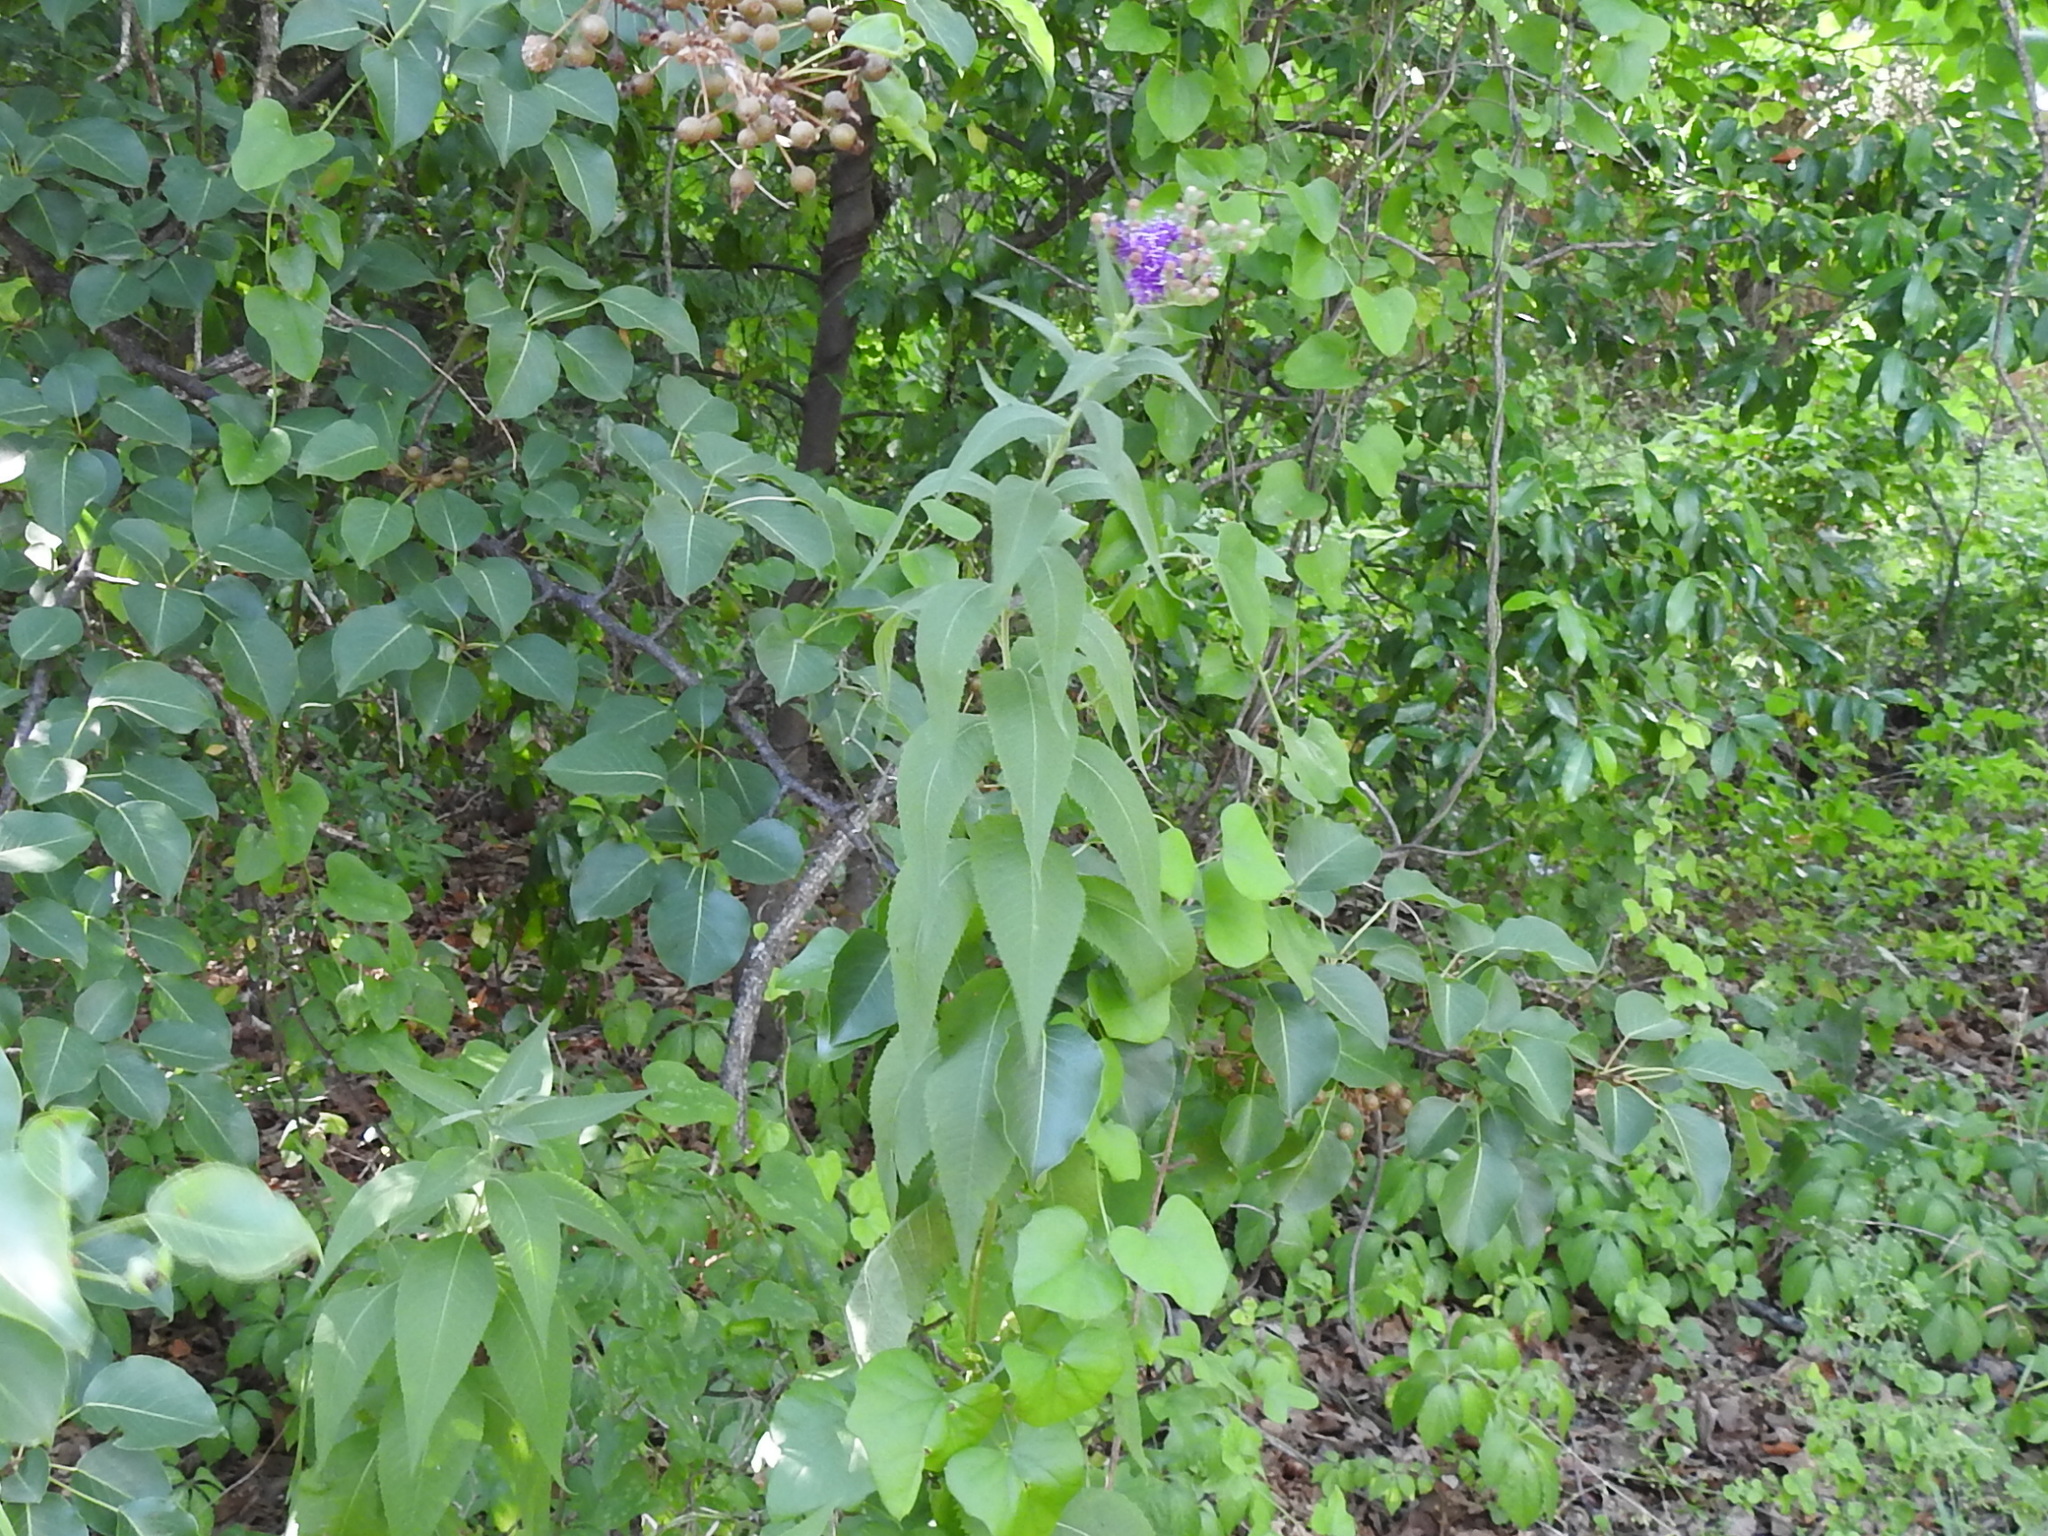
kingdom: Plantae
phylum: Tracheophyta
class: Magnoliopsida
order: Asterales
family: Asteraceae
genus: Vernonia
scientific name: Vernonia baldwinii
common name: Western ironweed
